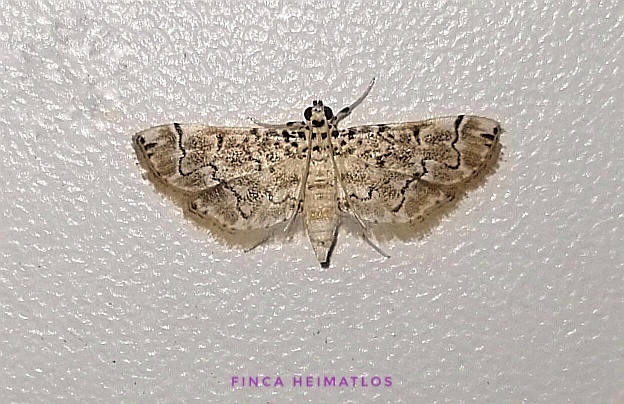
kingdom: Animalia
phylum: Arthropoda
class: Insecta
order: Lepidoptera
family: Crambidae
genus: Metoeca
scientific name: Metoeca foedalis
